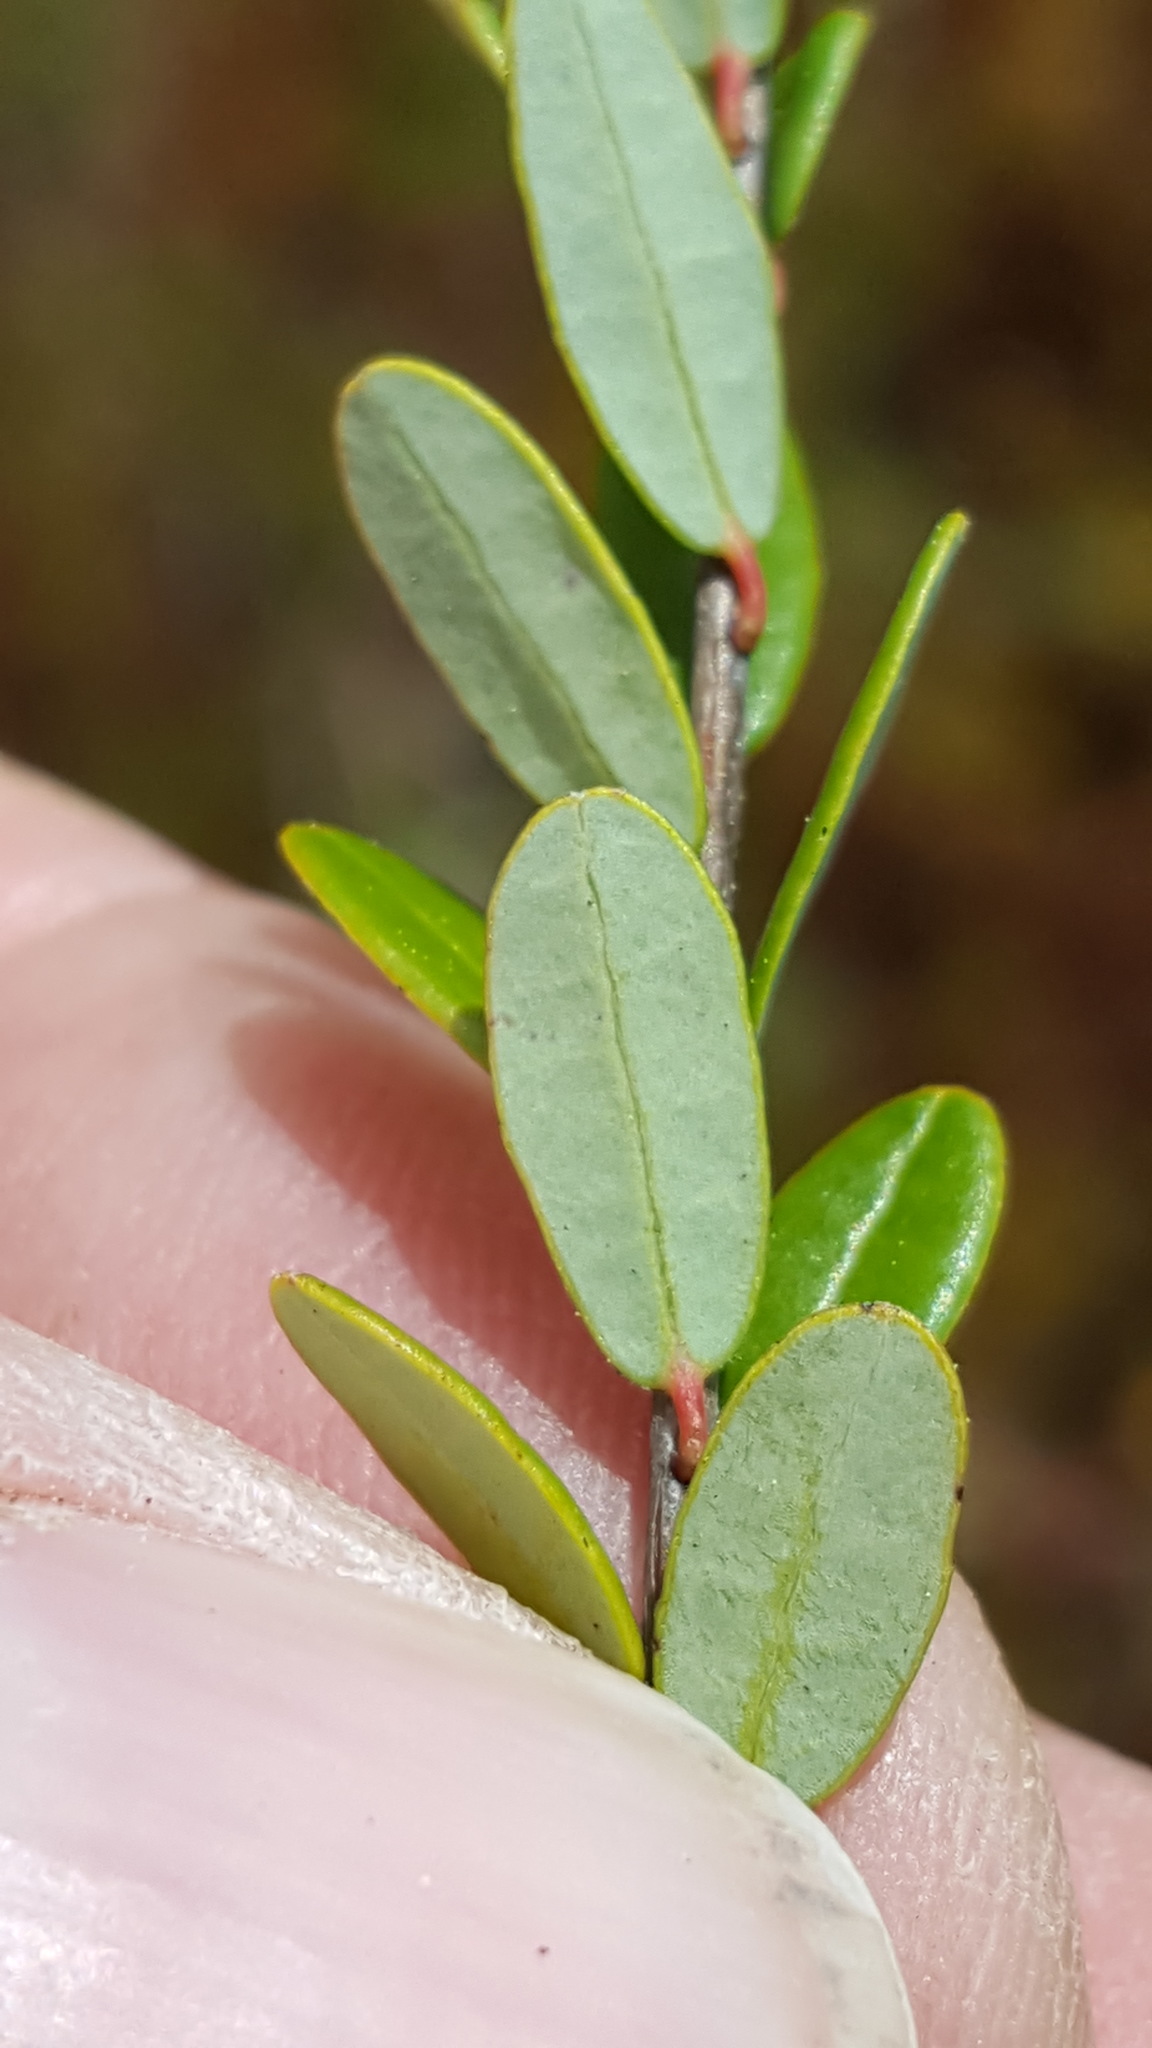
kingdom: Plantae
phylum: Tracheophyta
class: Magnoliopsida
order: Ericales
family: Ericaceae
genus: Vaccinium
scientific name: Vaccinium macrocarpon
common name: American cranberry
